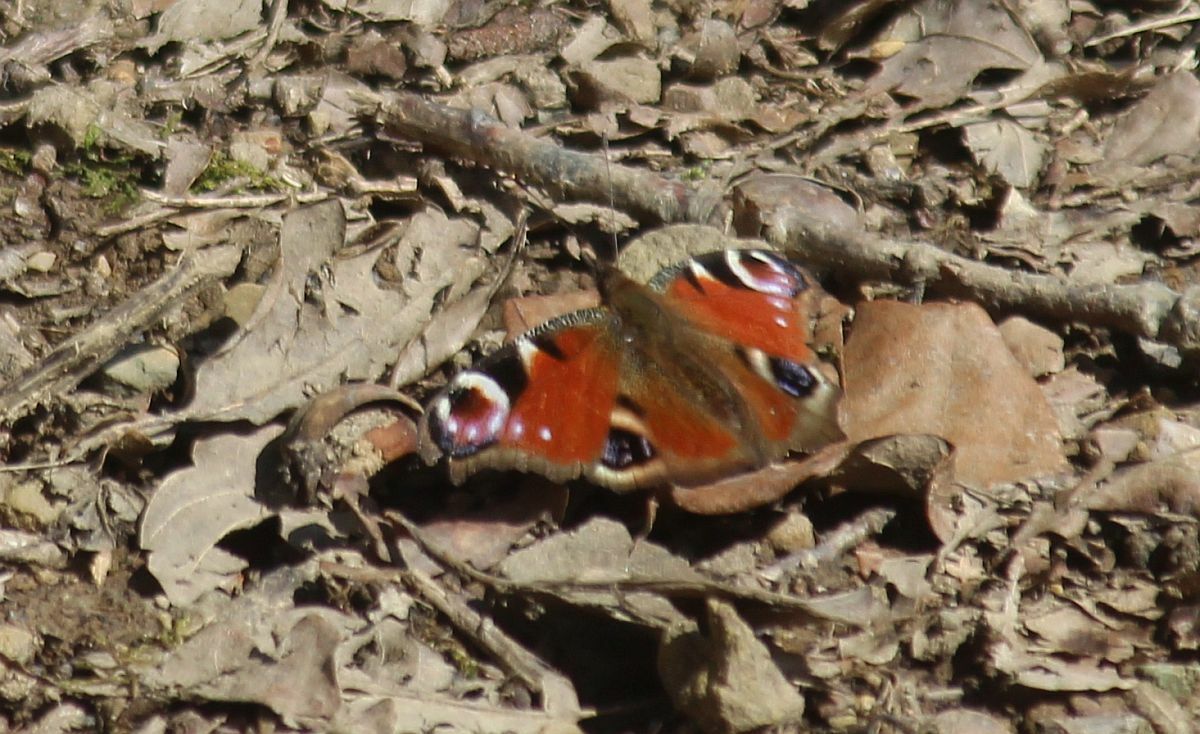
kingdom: Animalia
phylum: Arthropoda
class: Insecta
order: Lepidoptera
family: Nymphalidae
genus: Aglais
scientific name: Aglais io
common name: Peacock
